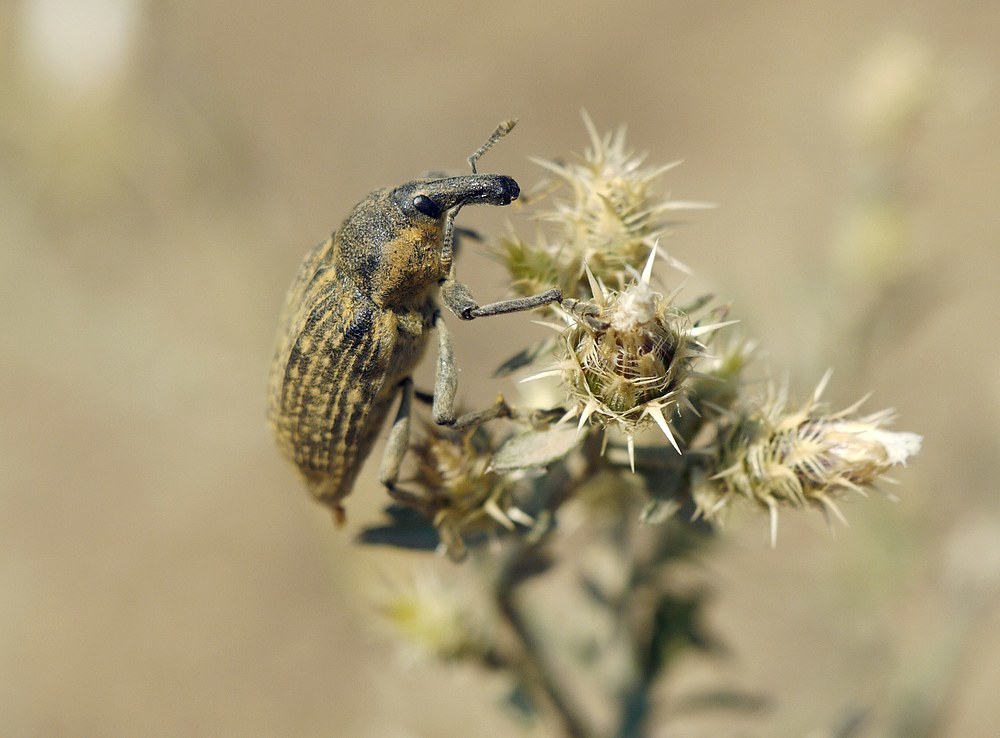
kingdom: Animalia
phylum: Arthropoda
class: Insecta
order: Coleoptera
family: Curculionidae
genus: Larinus
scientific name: Larinus latus
